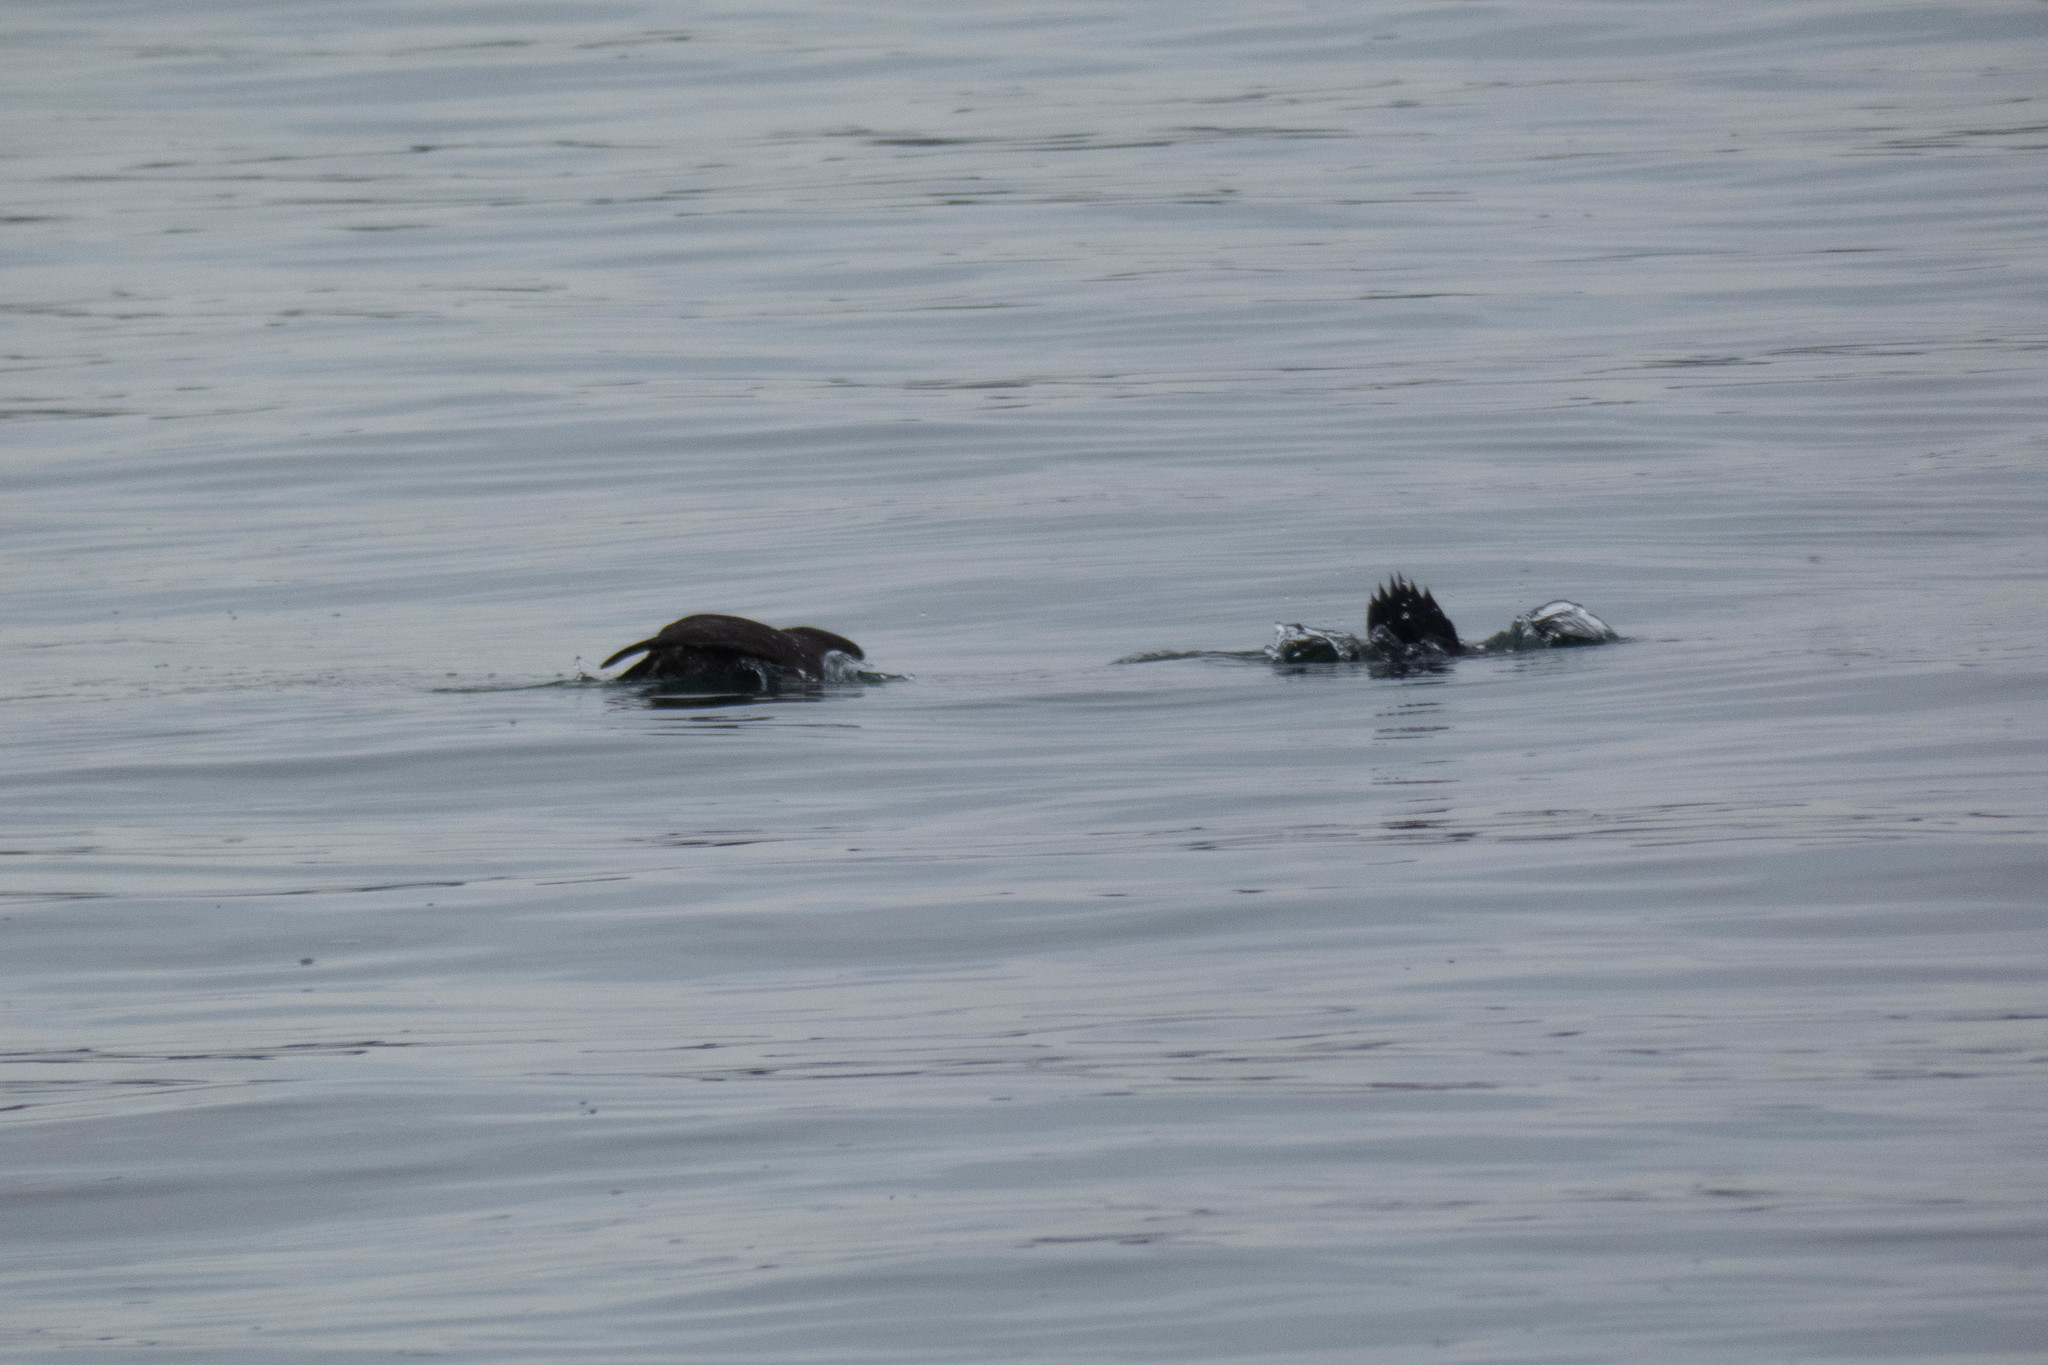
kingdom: Animalia
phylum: Chordata
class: Aves
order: Anseriformes
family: Anatidae
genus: Histrionicus
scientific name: Histrionicus histrionicus
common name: Harlequin duck
